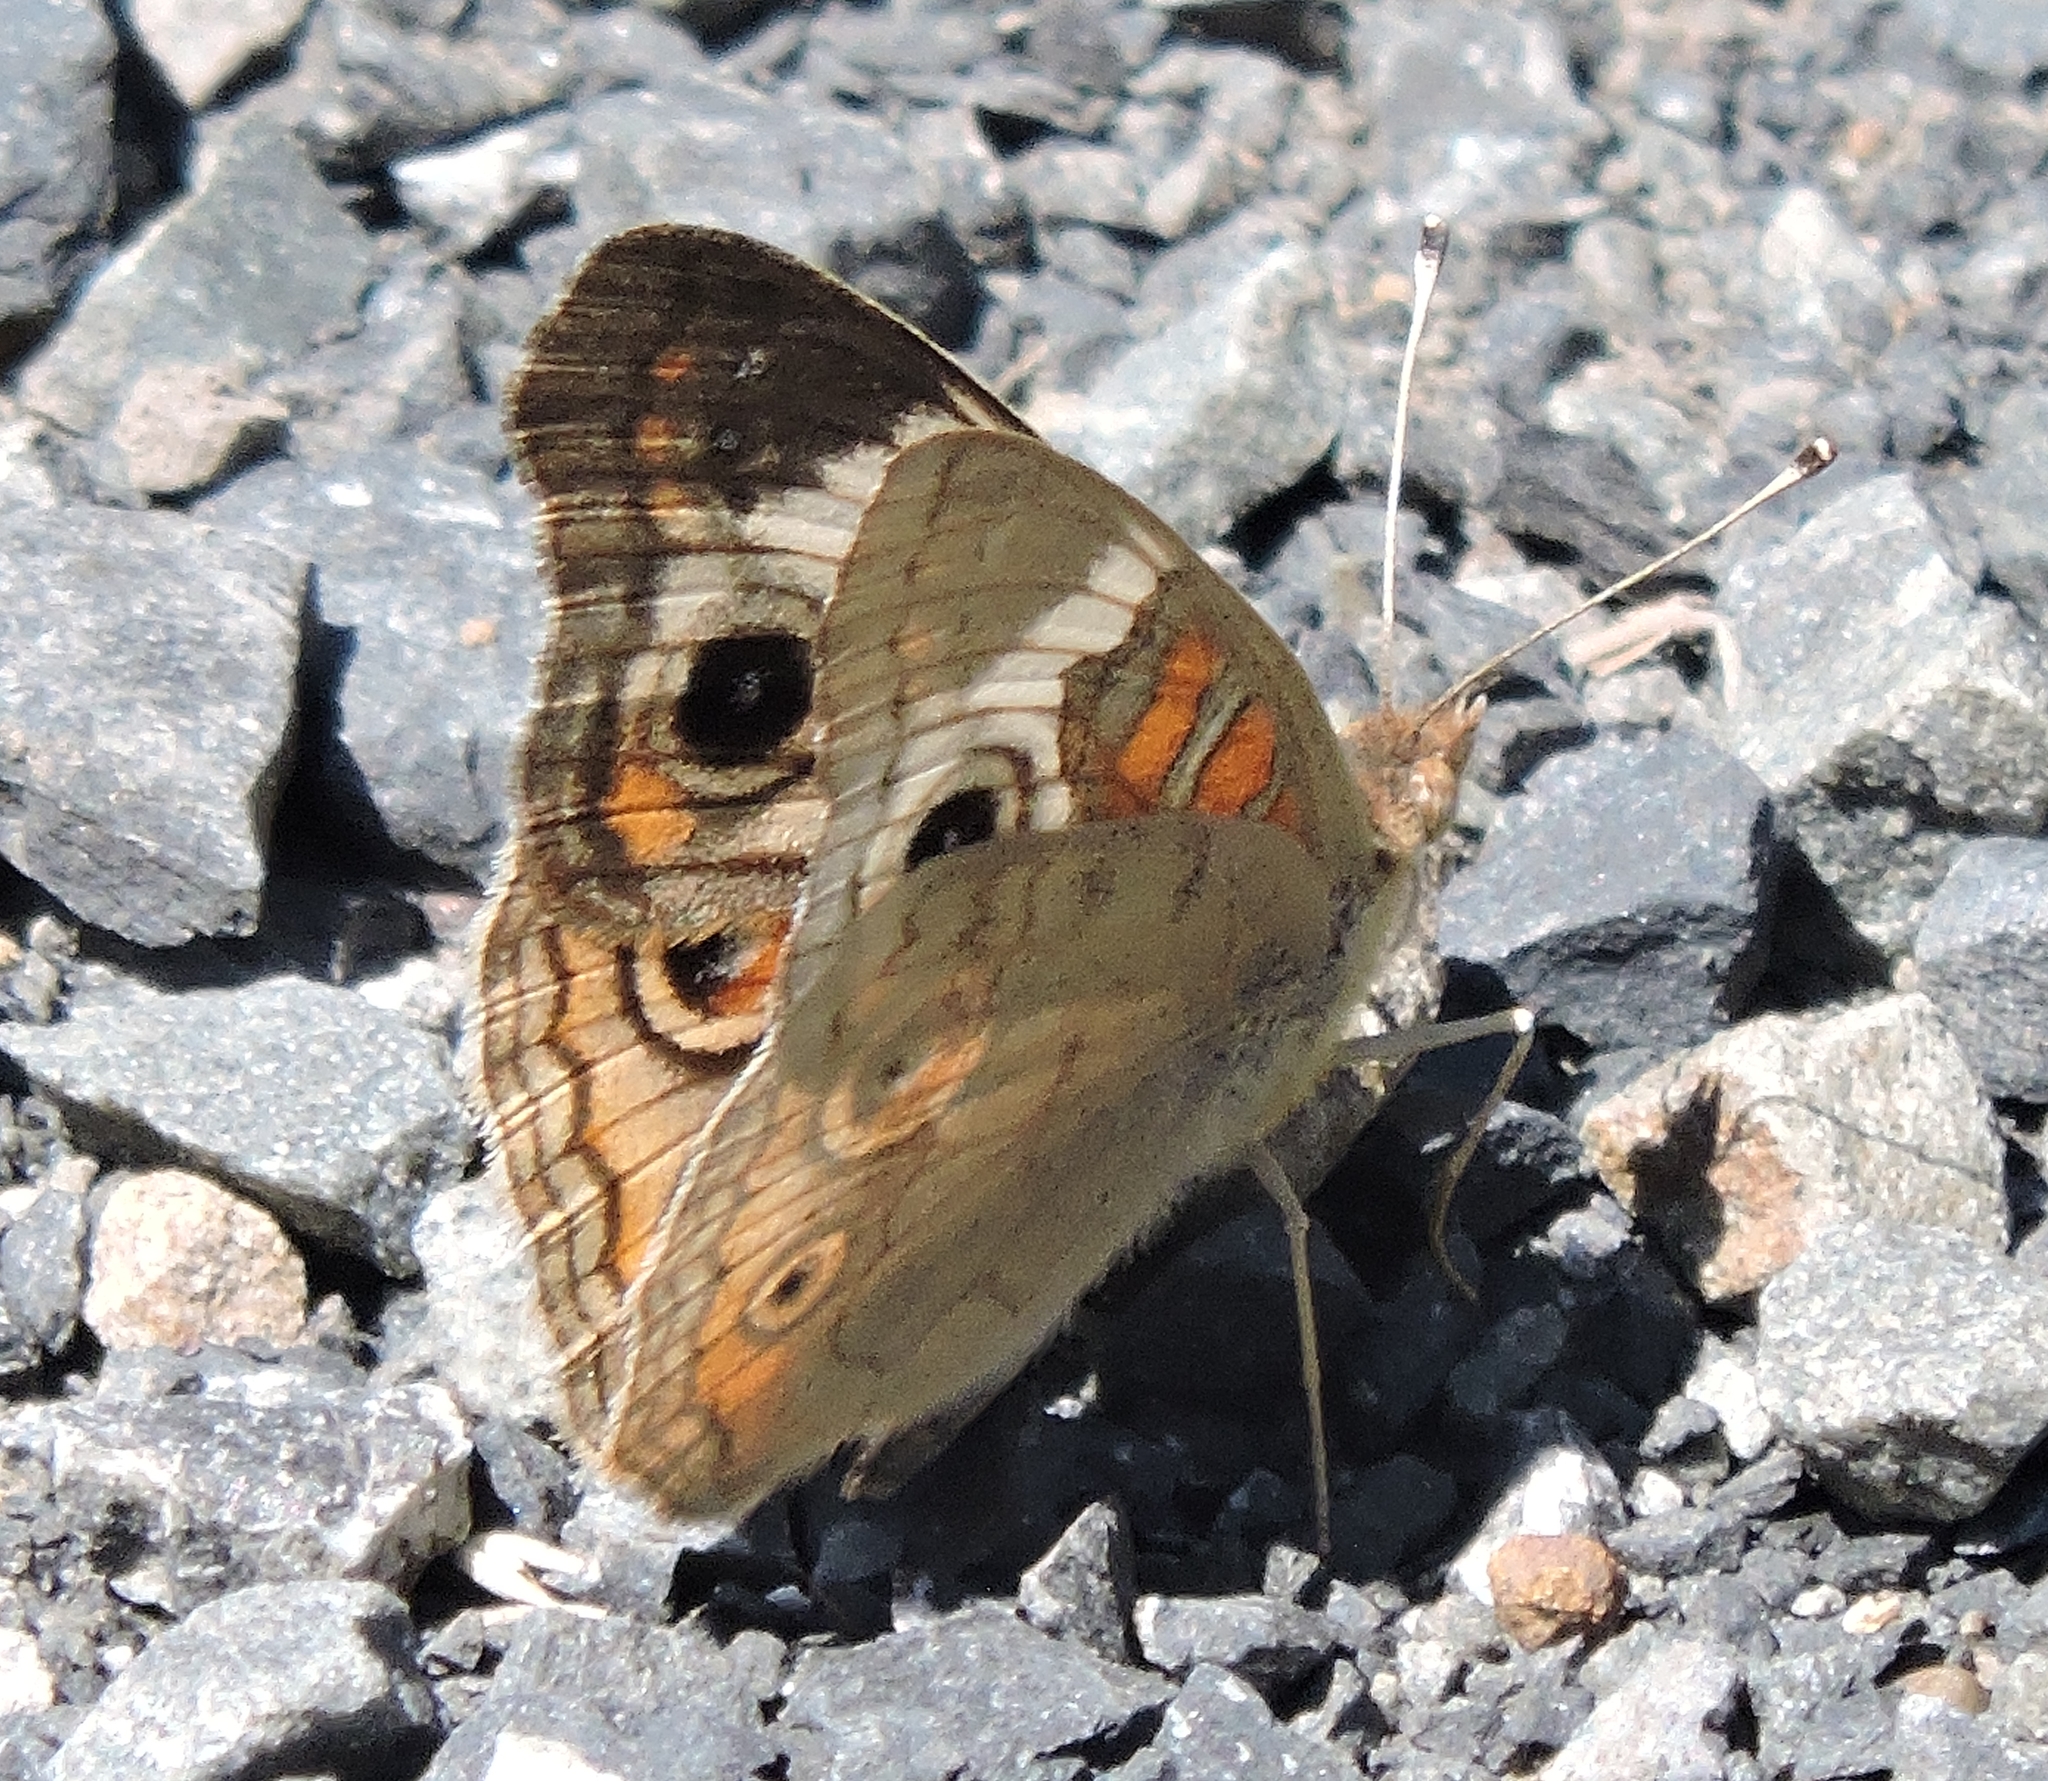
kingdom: Animalia
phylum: Arthropoda
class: Insecta
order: Lepidoptera
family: Nymphalidae
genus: Junonia
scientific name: Junonia grisea
